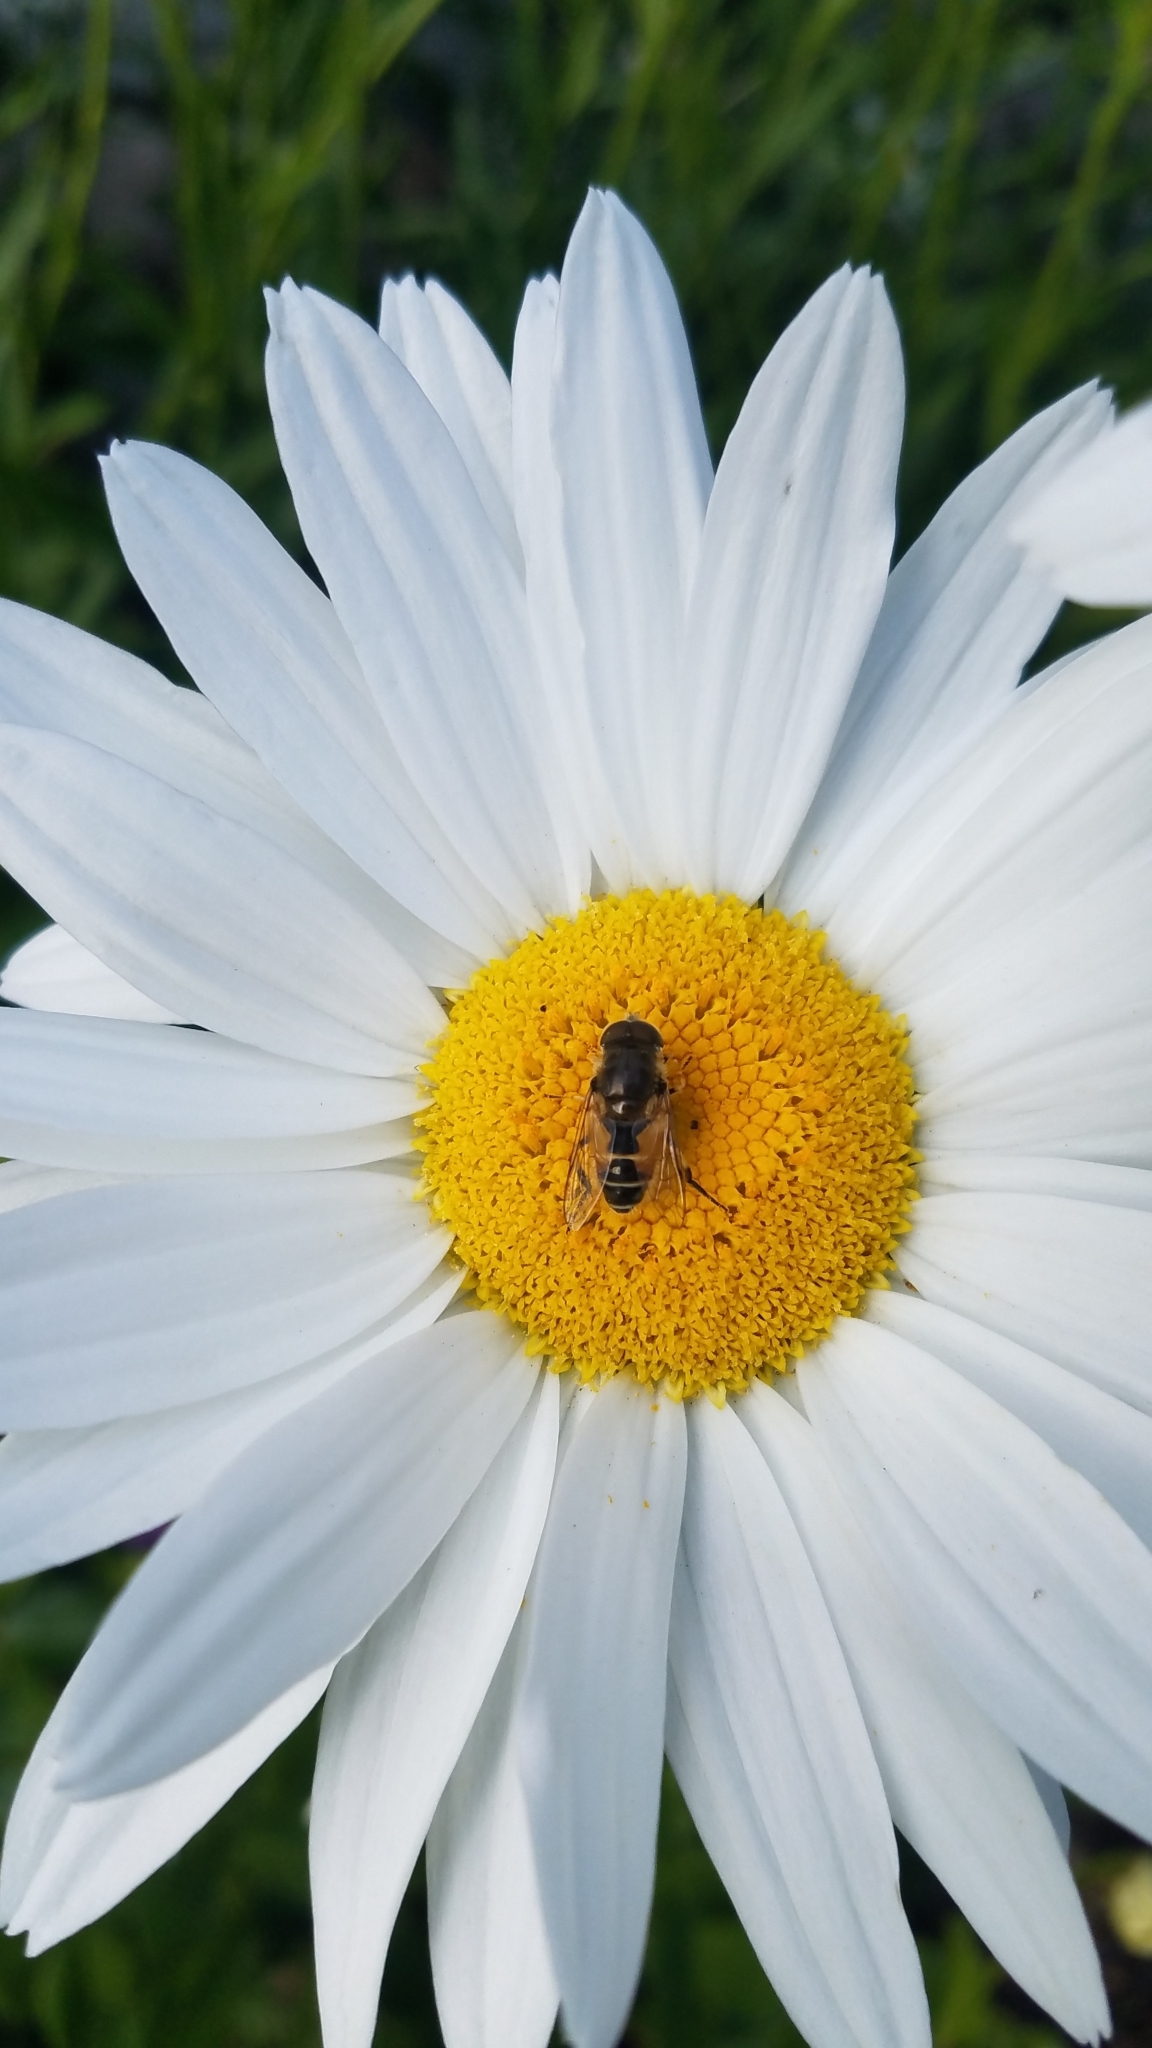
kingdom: Animalia
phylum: Arthropoda
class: Insecta
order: Diptera
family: Syrphidae
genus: Eristalis
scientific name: Eristalis arbustorum
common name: Hover fly
